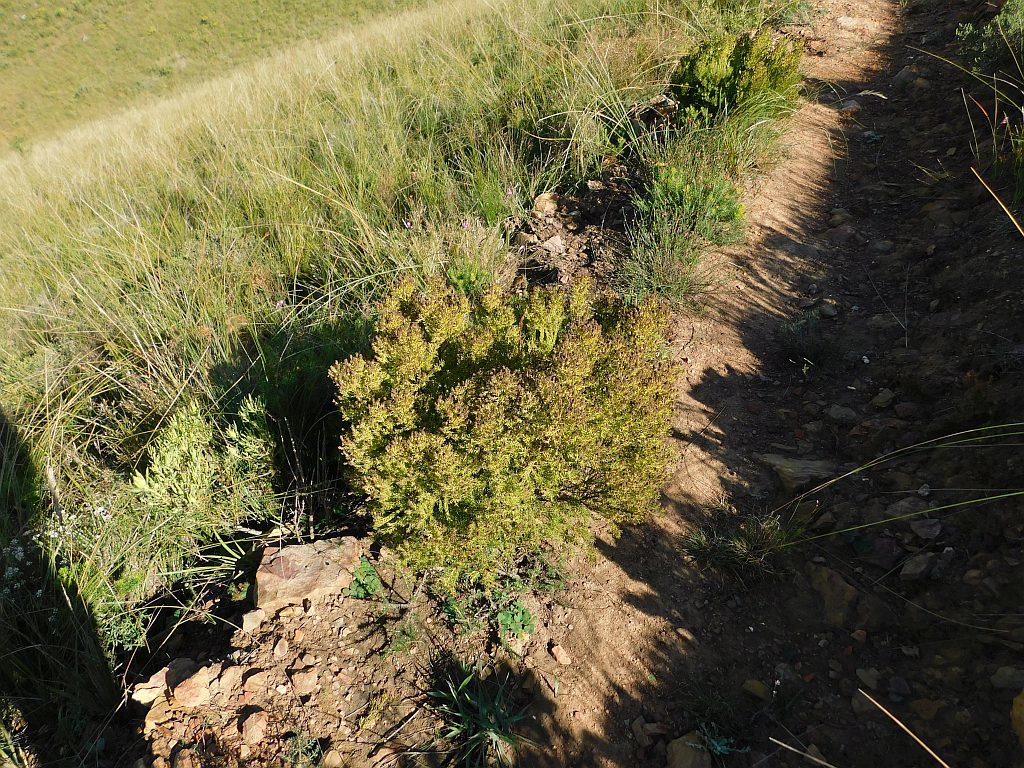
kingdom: Plantae
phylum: Tracheophyta
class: Magnoliopsida
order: Proteales
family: Proteaceae
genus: Leucadendron
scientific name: Leucadendron teretifolium
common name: Needle-leaf conebush
